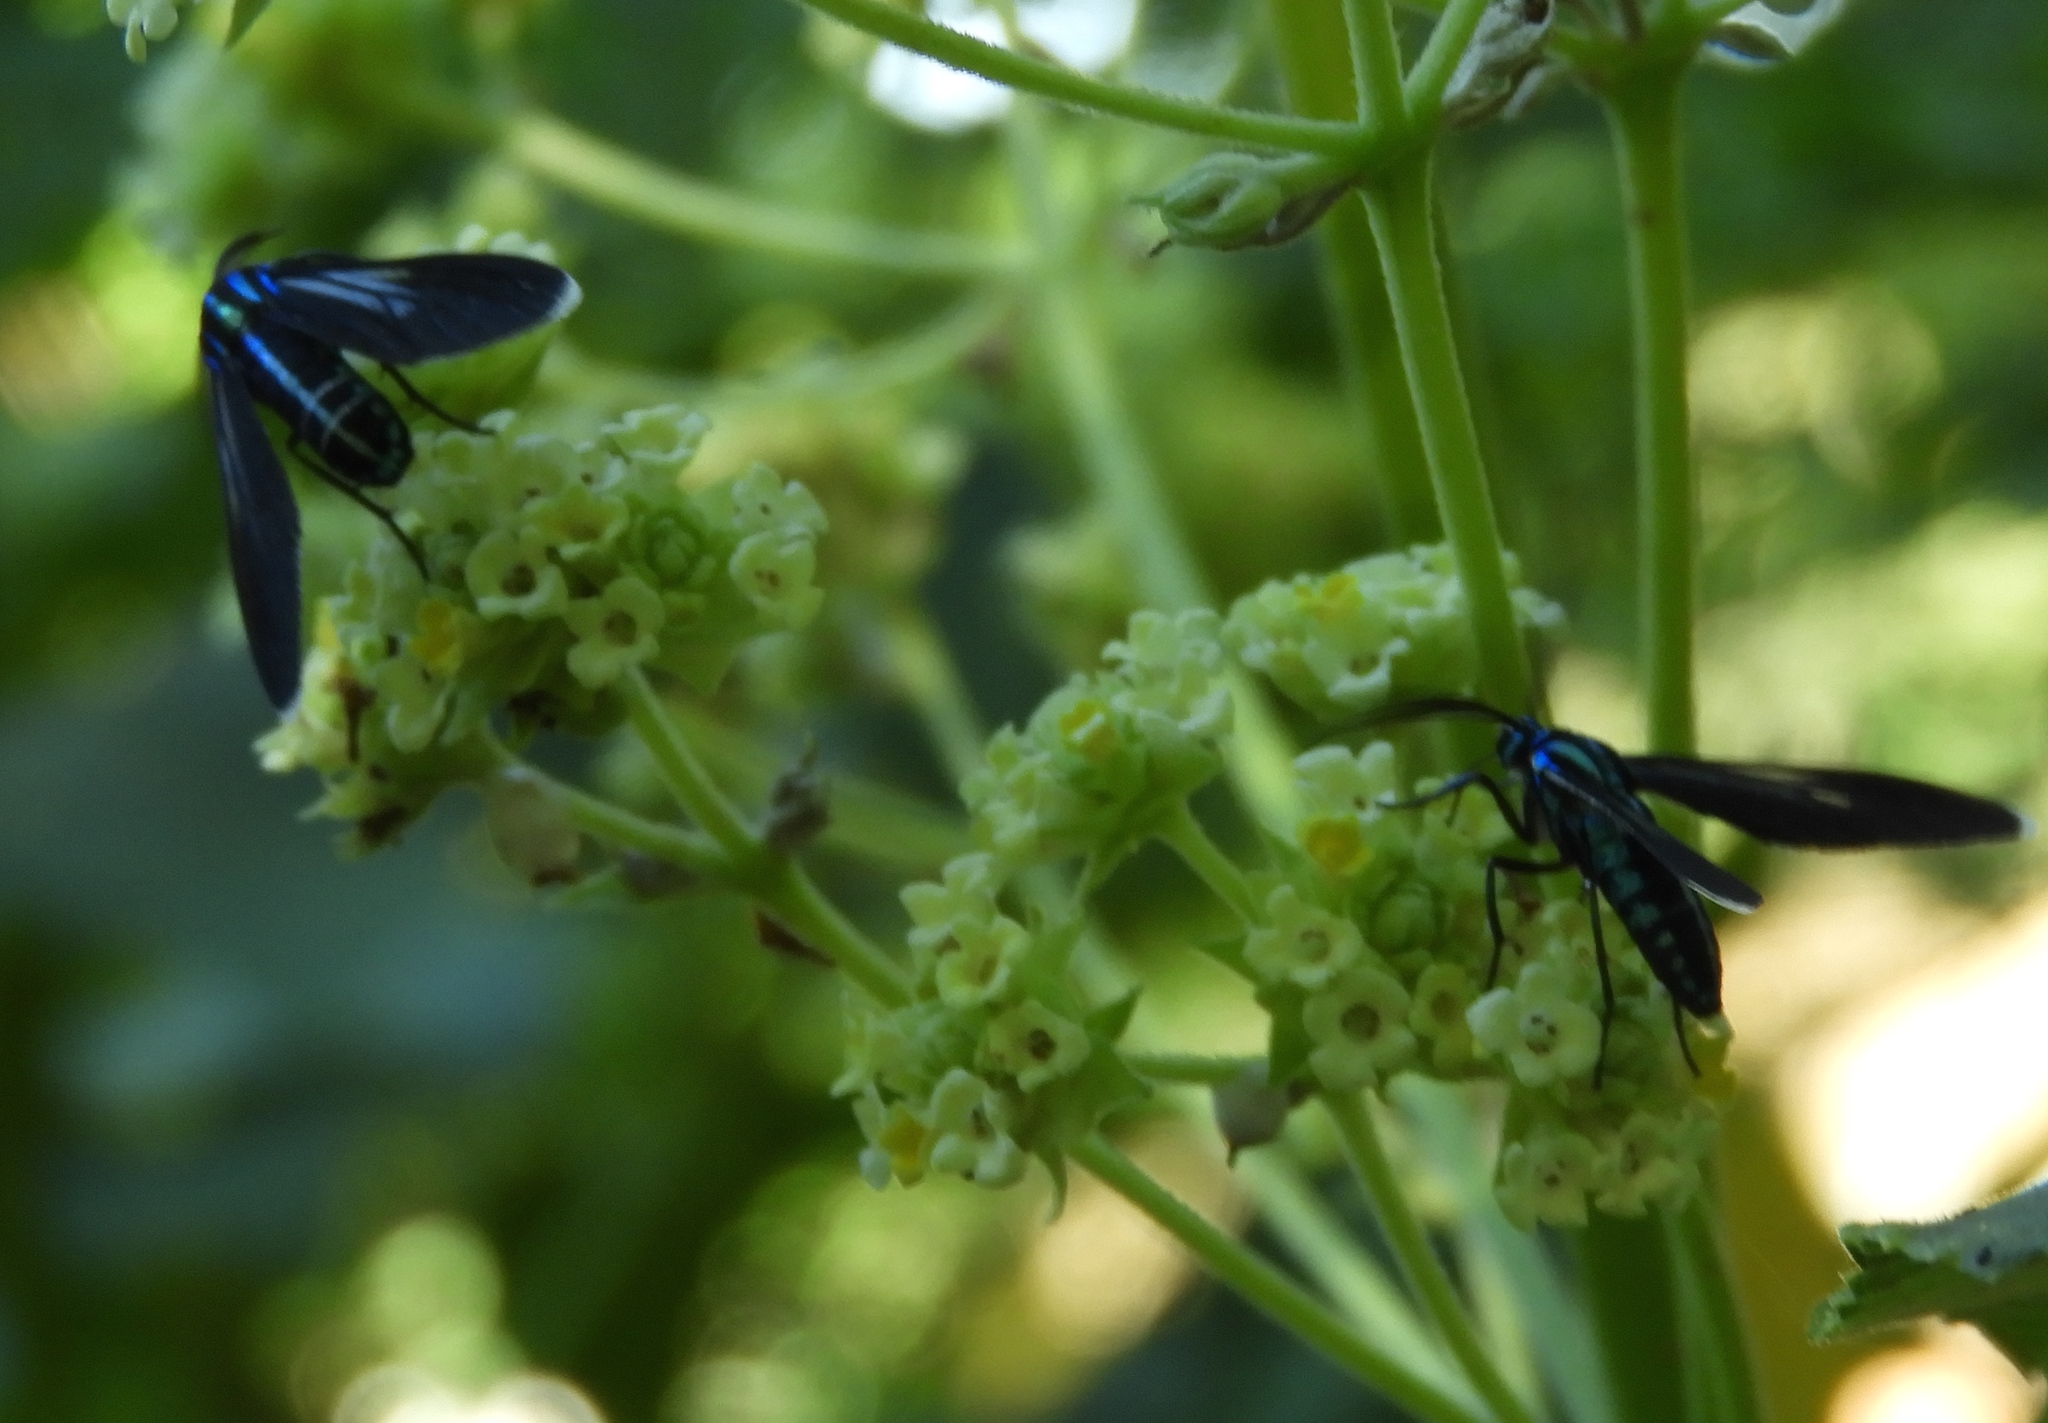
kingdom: Animalia
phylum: Arthropoda
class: Insecta
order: Lepidoptera
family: Erebidae
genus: Uranophora
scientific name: Uranophora leucotela
